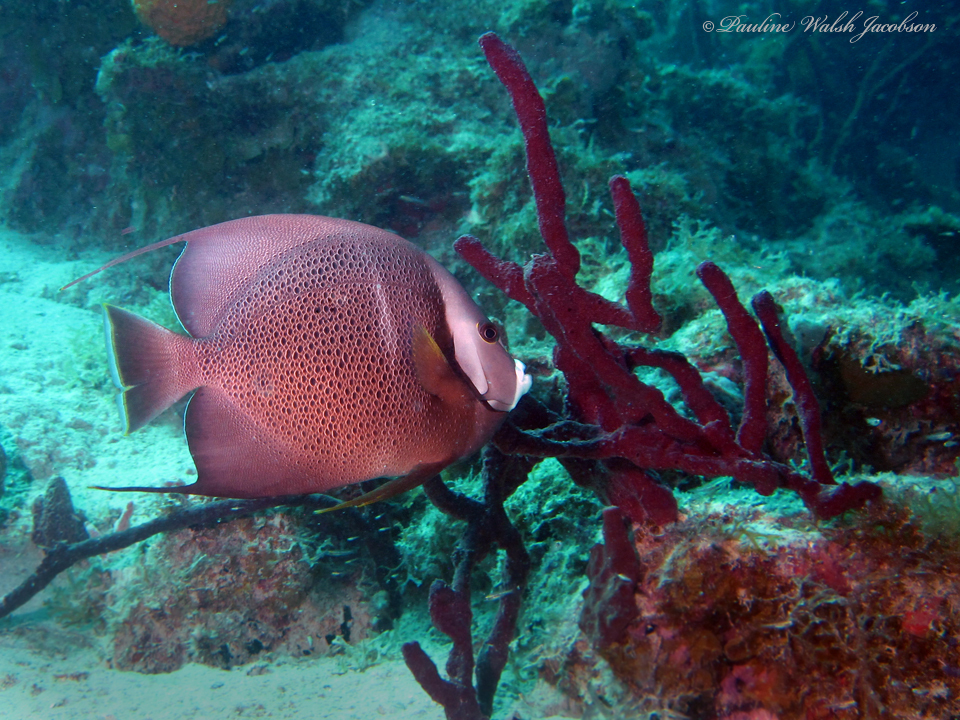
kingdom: Animalia
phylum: Chordata
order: Perciformes
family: Pomacanthidae
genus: Pomacanthus
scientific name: Pomacanthus arcuatus
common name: Gray angelfish
